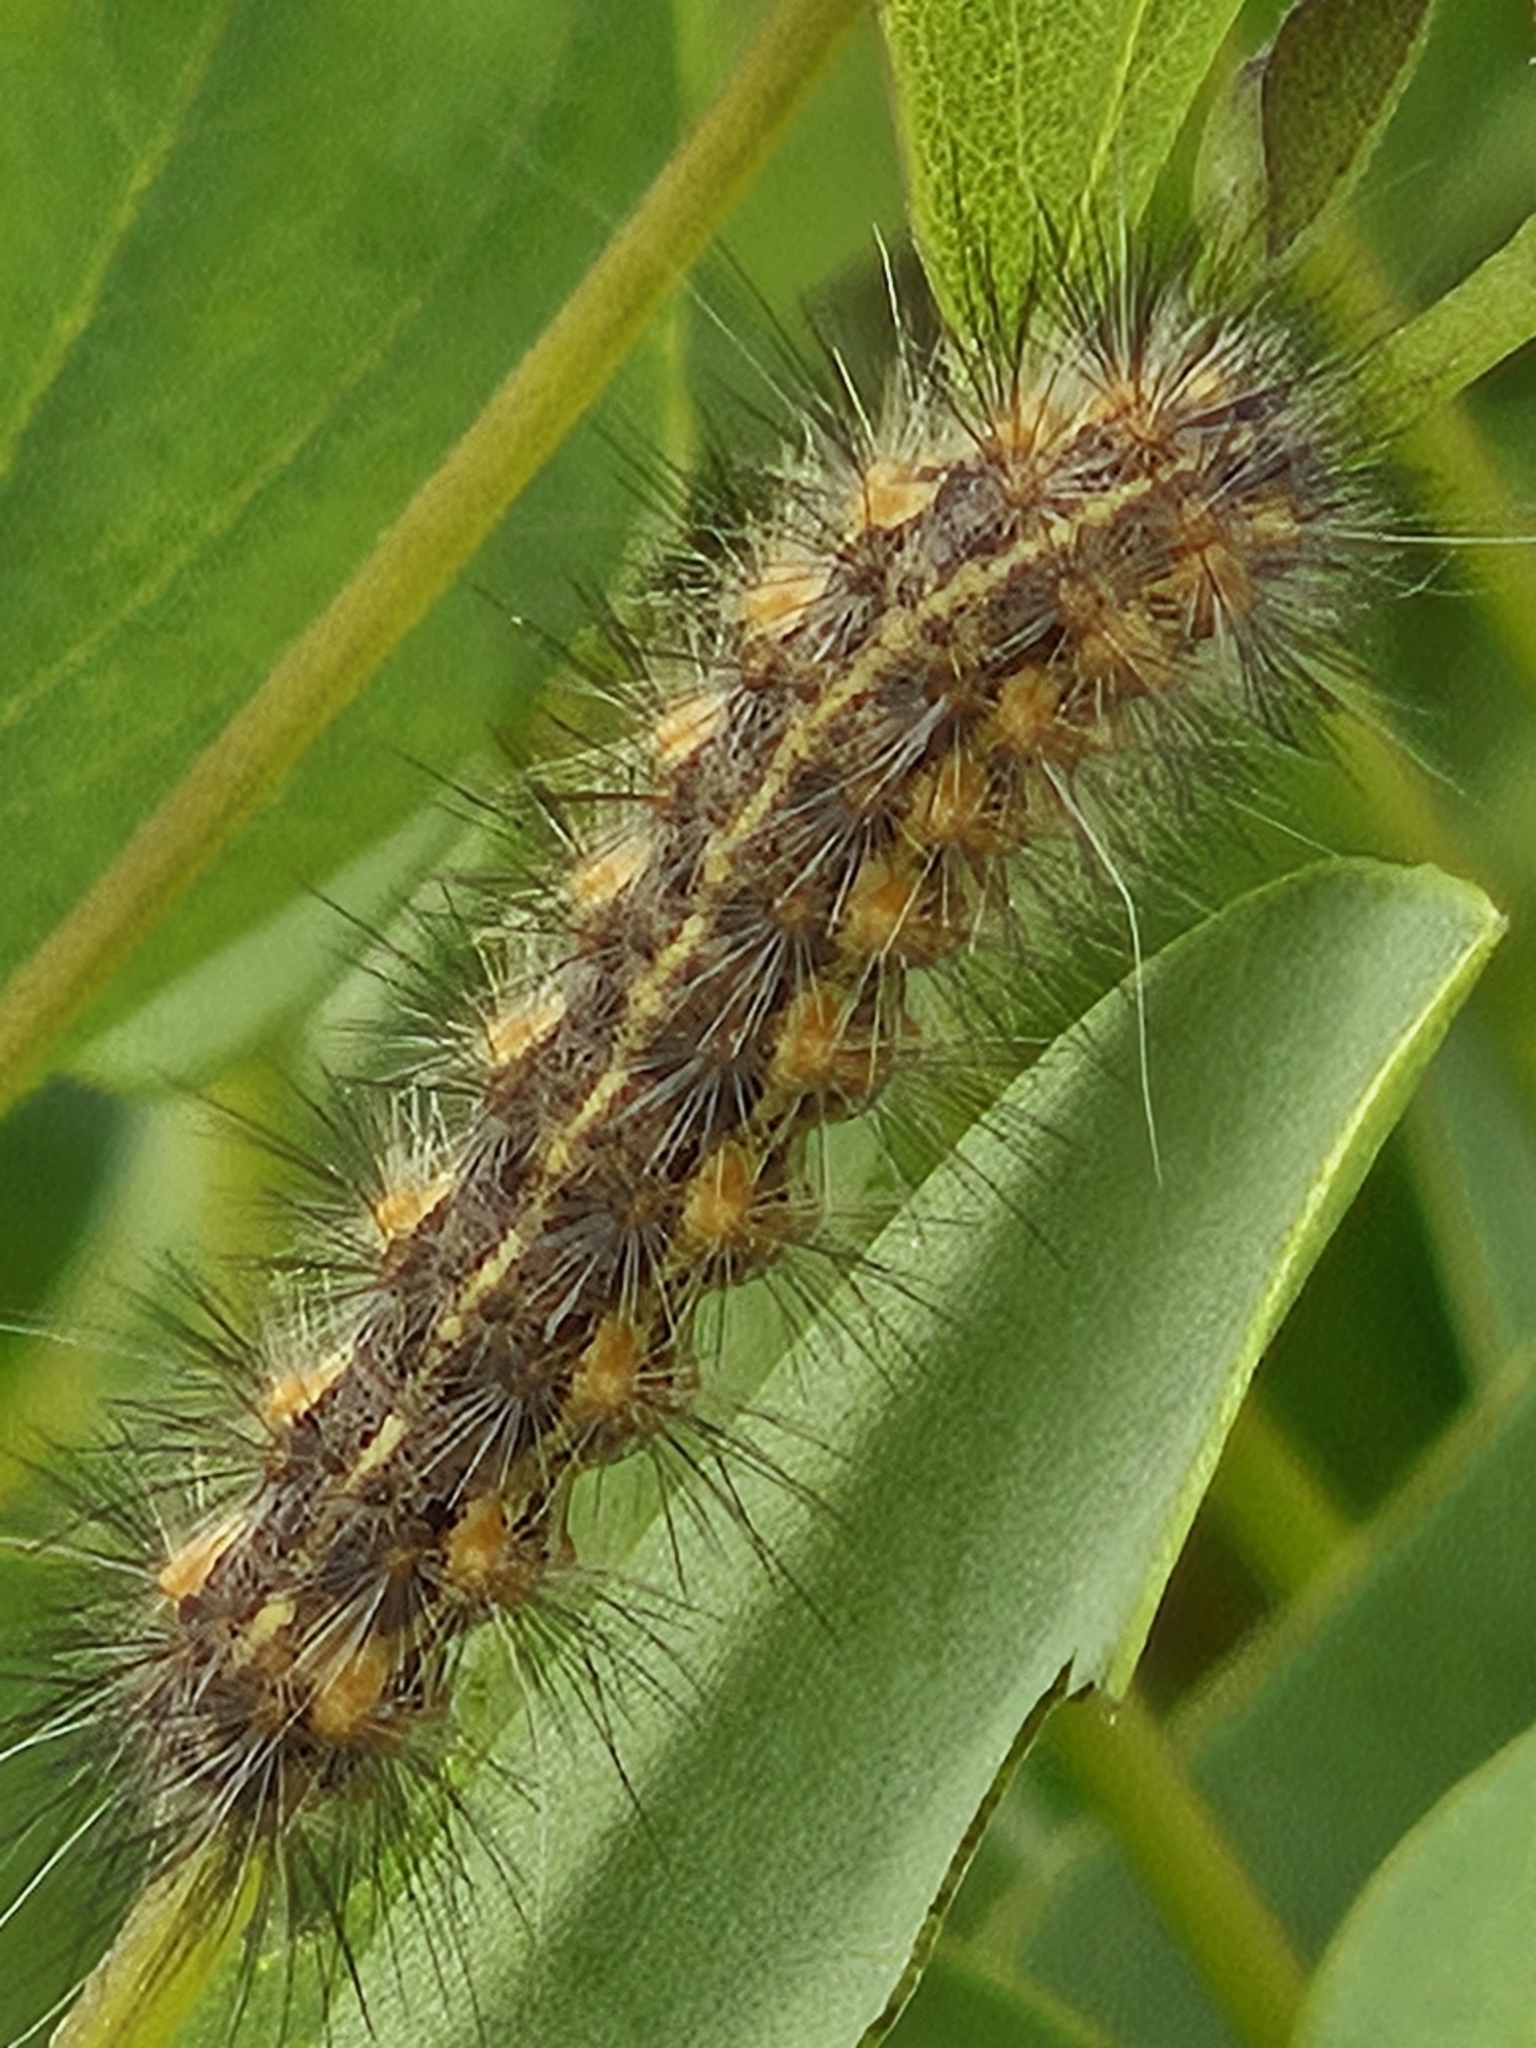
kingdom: Animalia
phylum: Arthropoda
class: Insecta
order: Lepidoptera
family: Erebidae
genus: Estigmene
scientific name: Estigmene acrea
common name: Salt marsh moth
